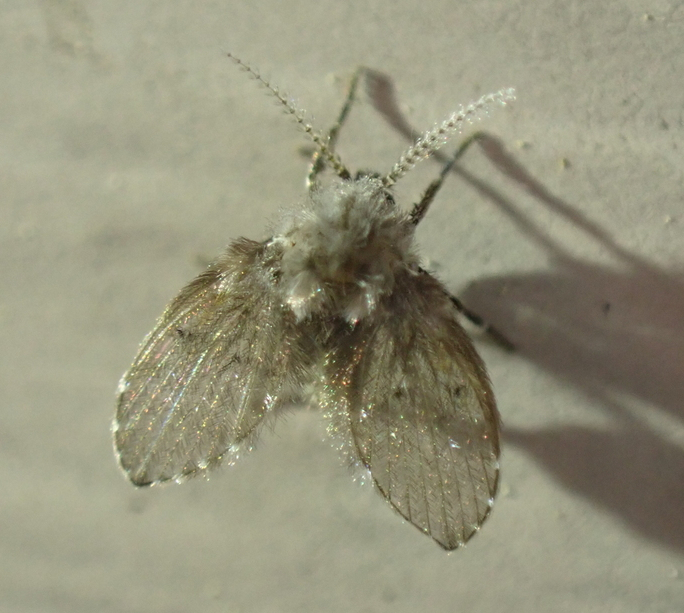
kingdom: Animalia
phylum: Arthropoda
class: Insecta
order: Diptera
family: Psychodidae
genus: Clogmia
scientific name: Clogmia albipunctatus
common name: White-spotted moth fly
